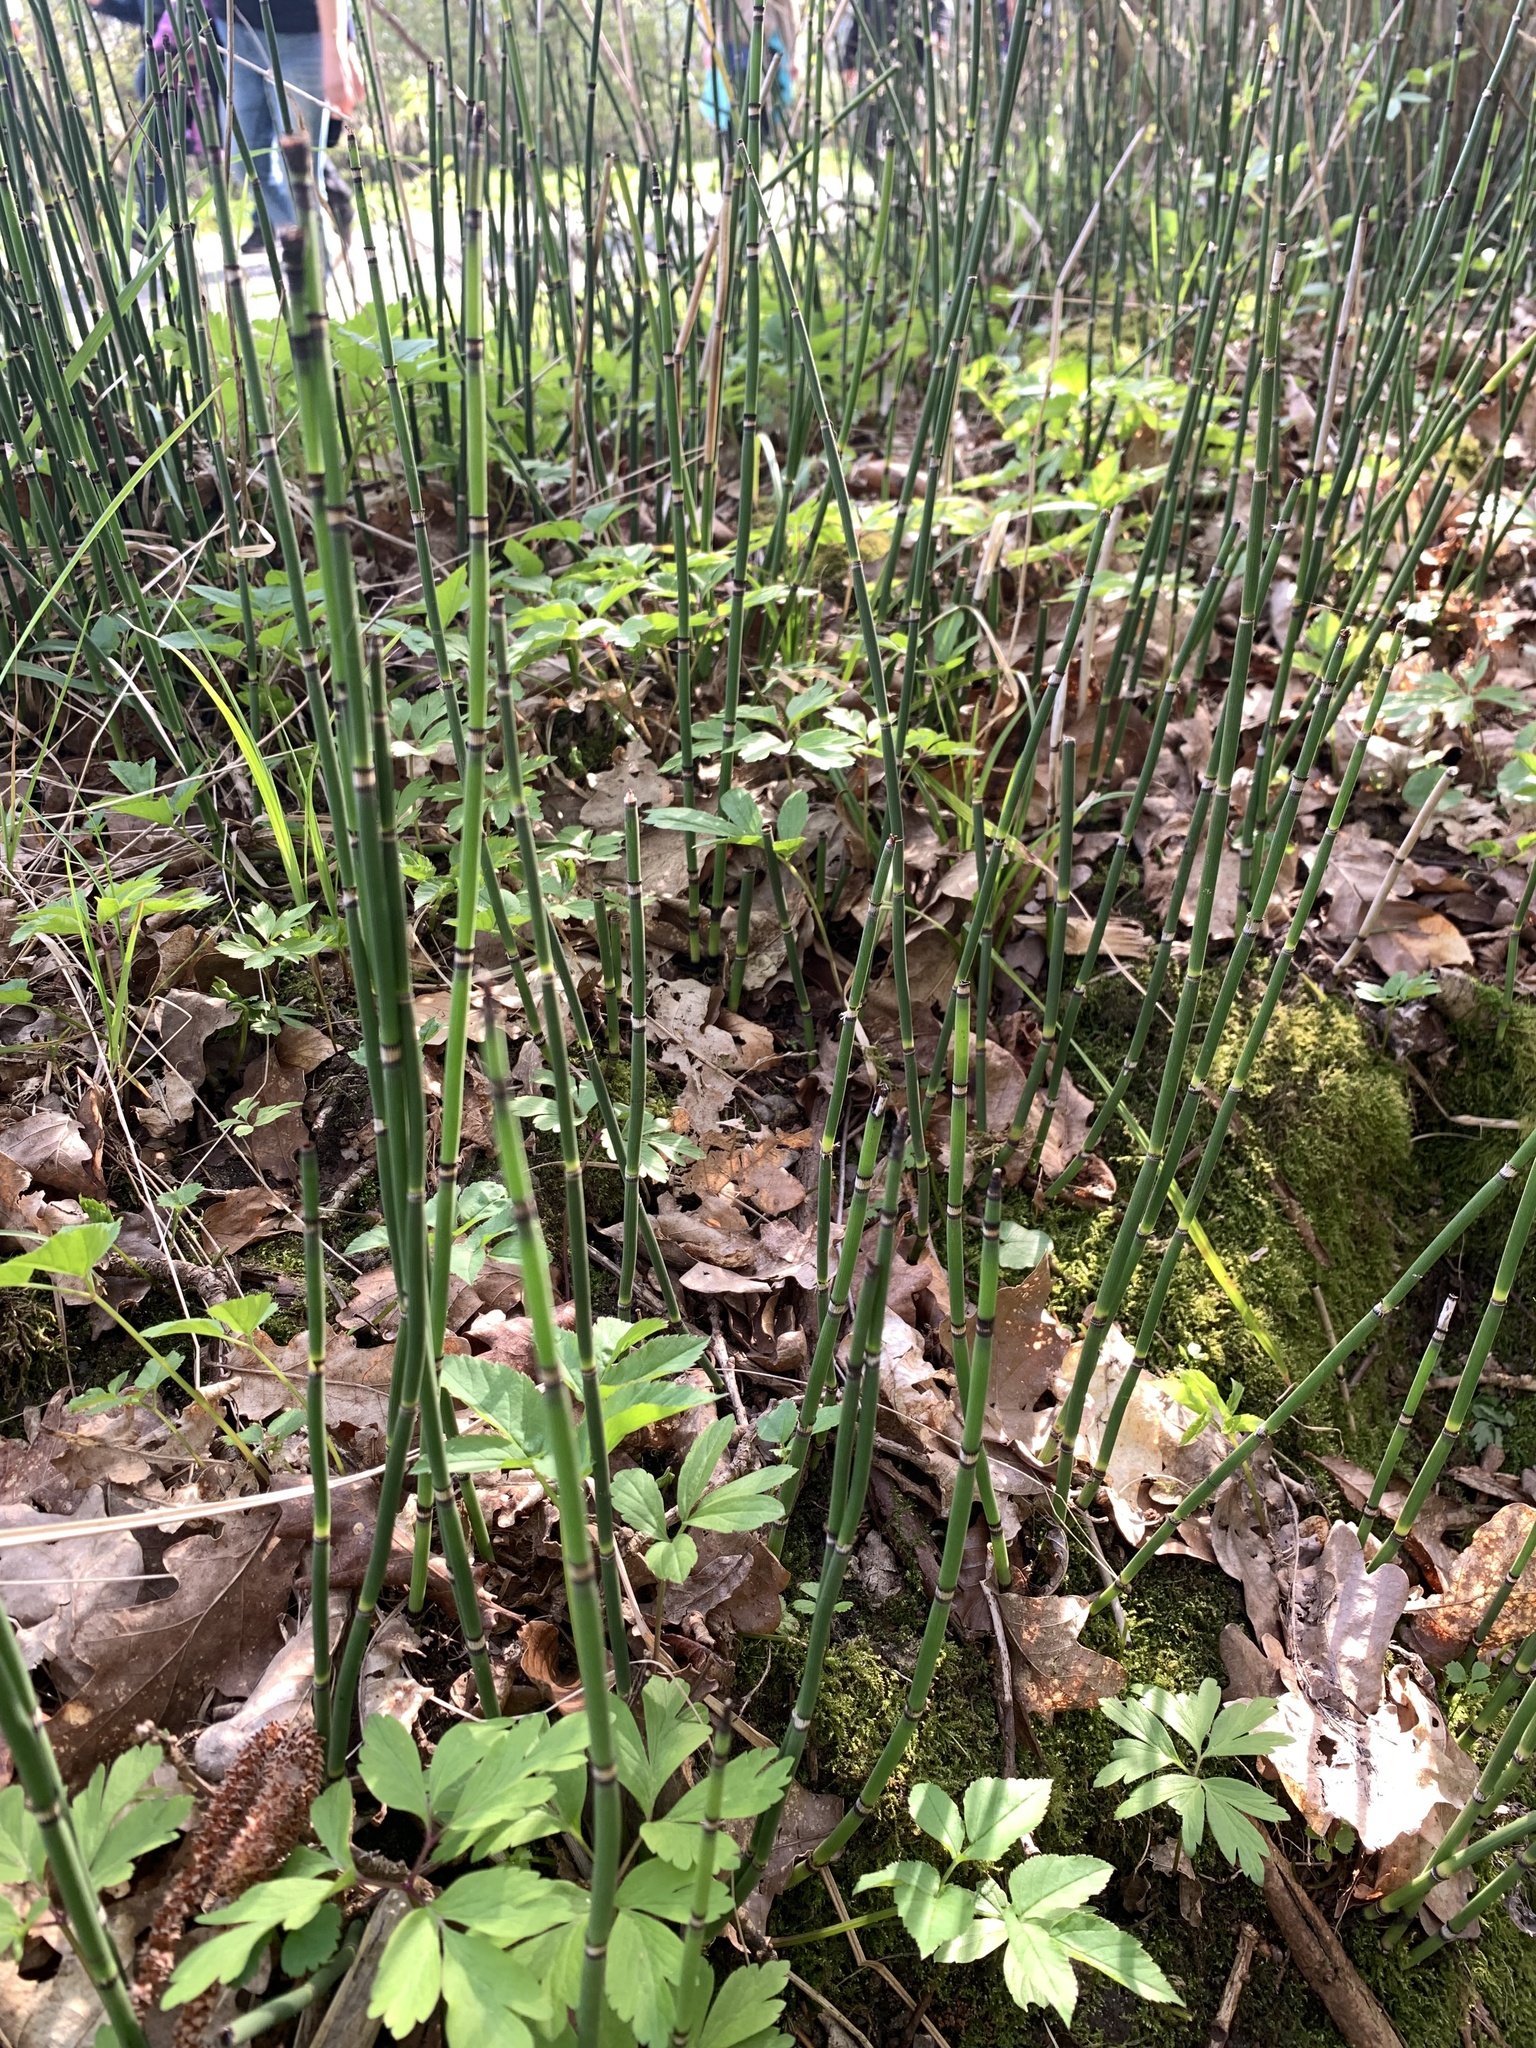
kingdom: Plantae
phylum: Tracheophyta
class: Polypodiopsida
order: Equisetales
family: Equisetaceae
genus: Equisetum
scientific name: Equisetum hyemale
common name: Rough horsetail
